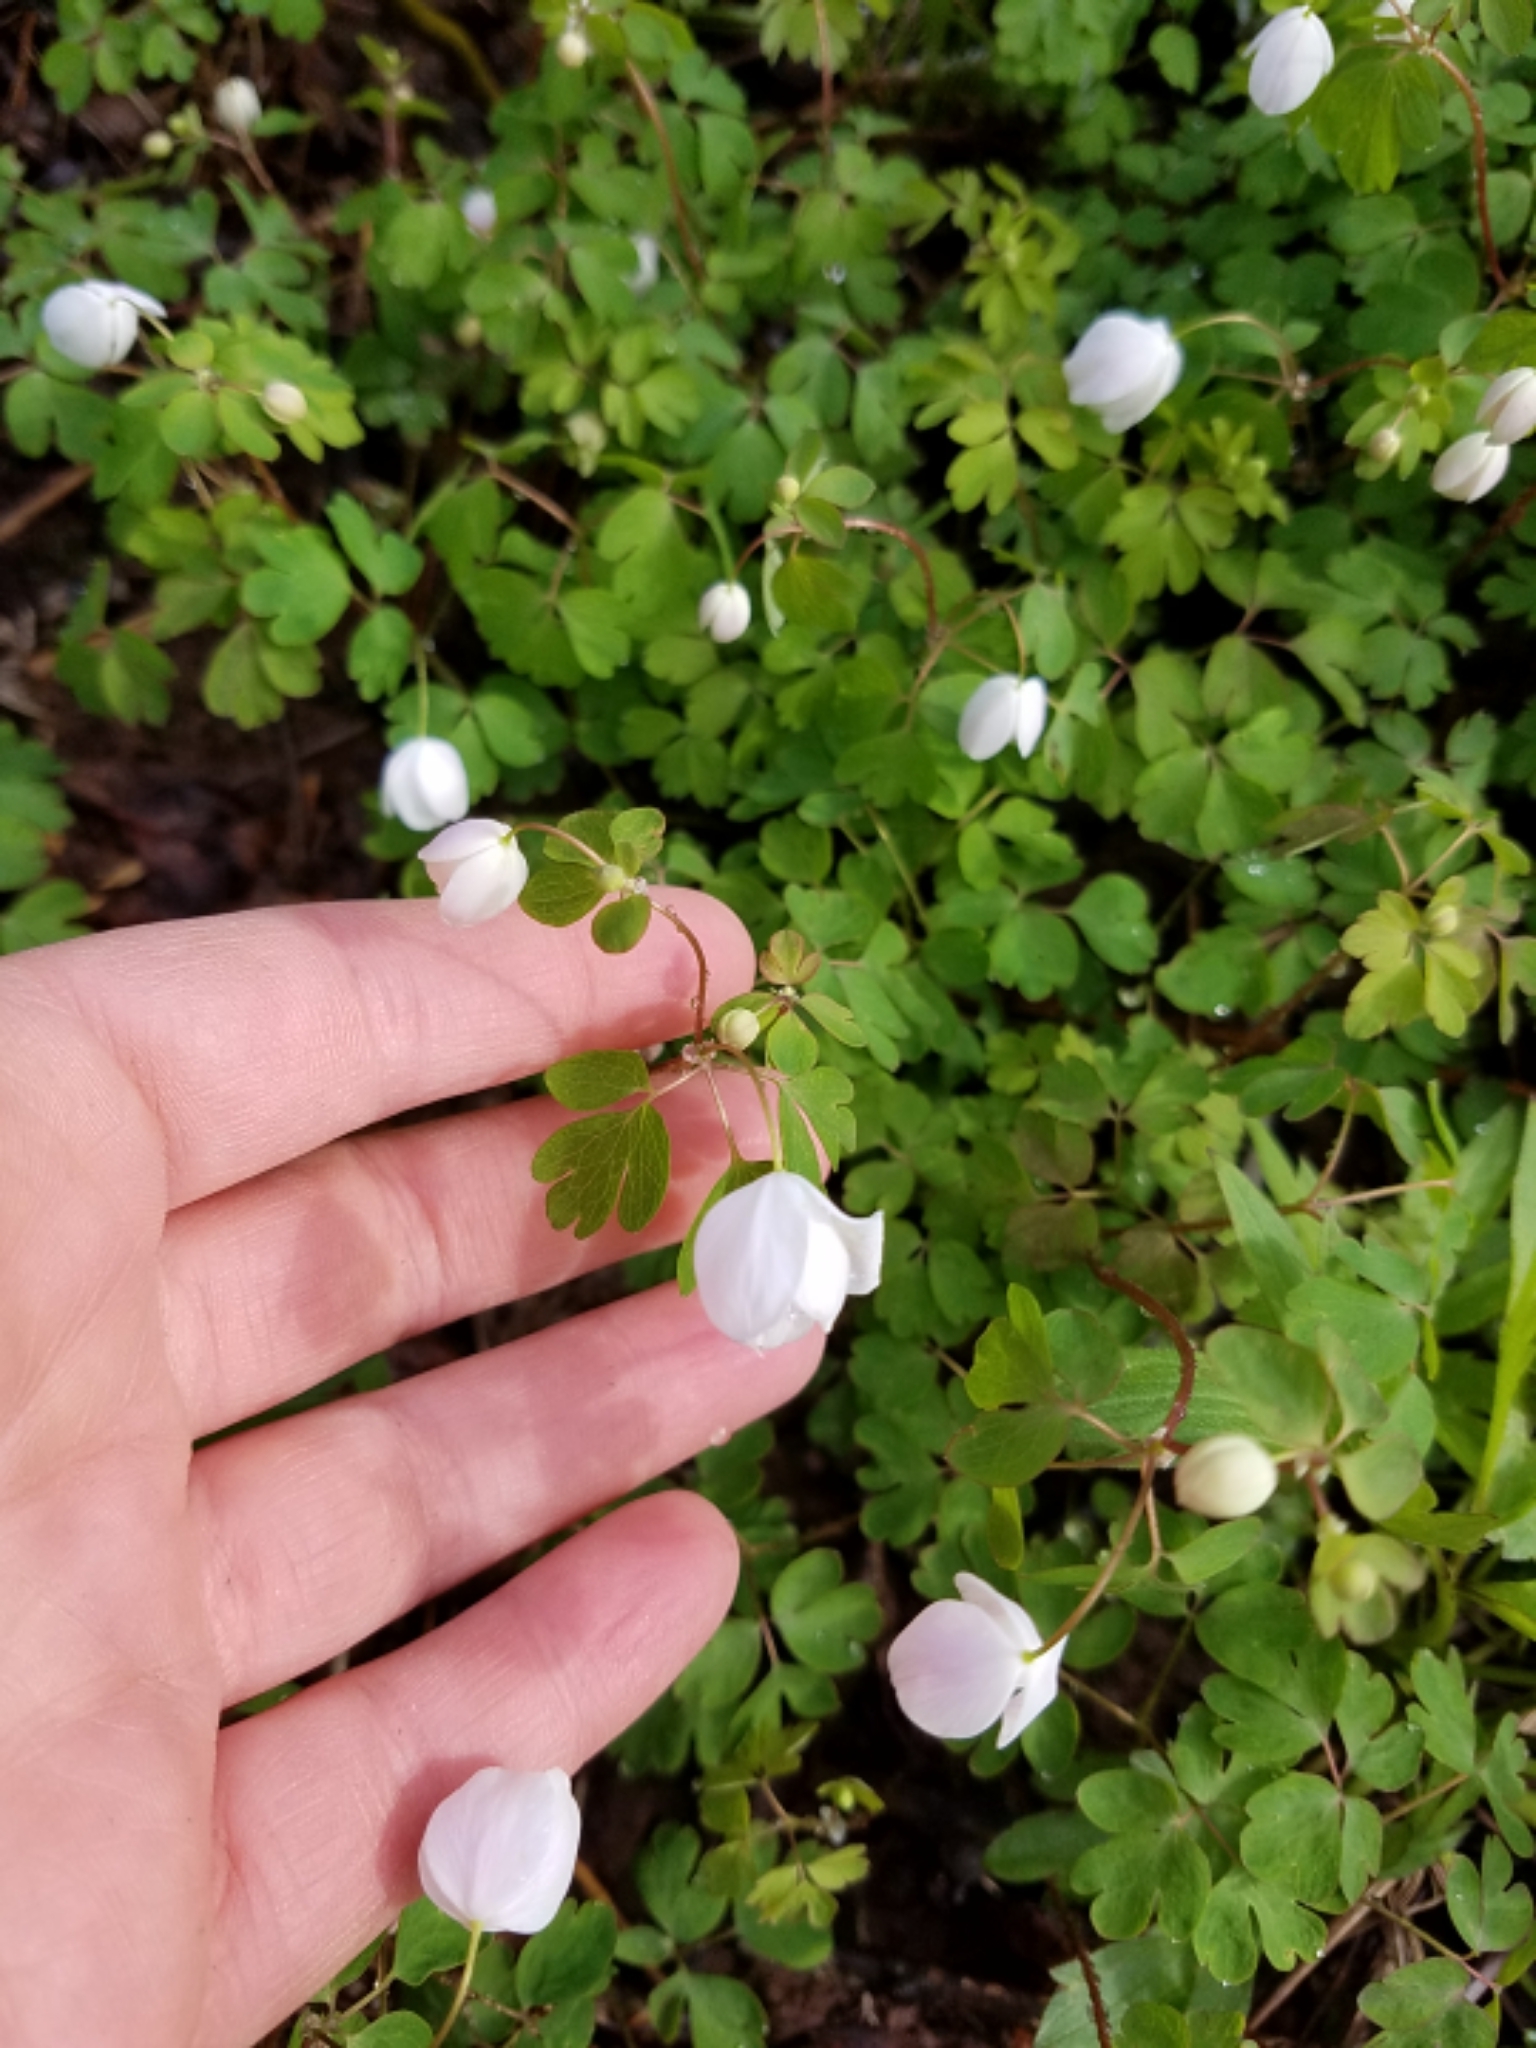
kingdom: Plantae
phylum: Tracheophyta
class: Magnoliopsida
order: Ranunculales
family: Ranunculaceae
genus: Enemion
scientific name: Enemion biternatum
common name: Eastern false rue-anemone
